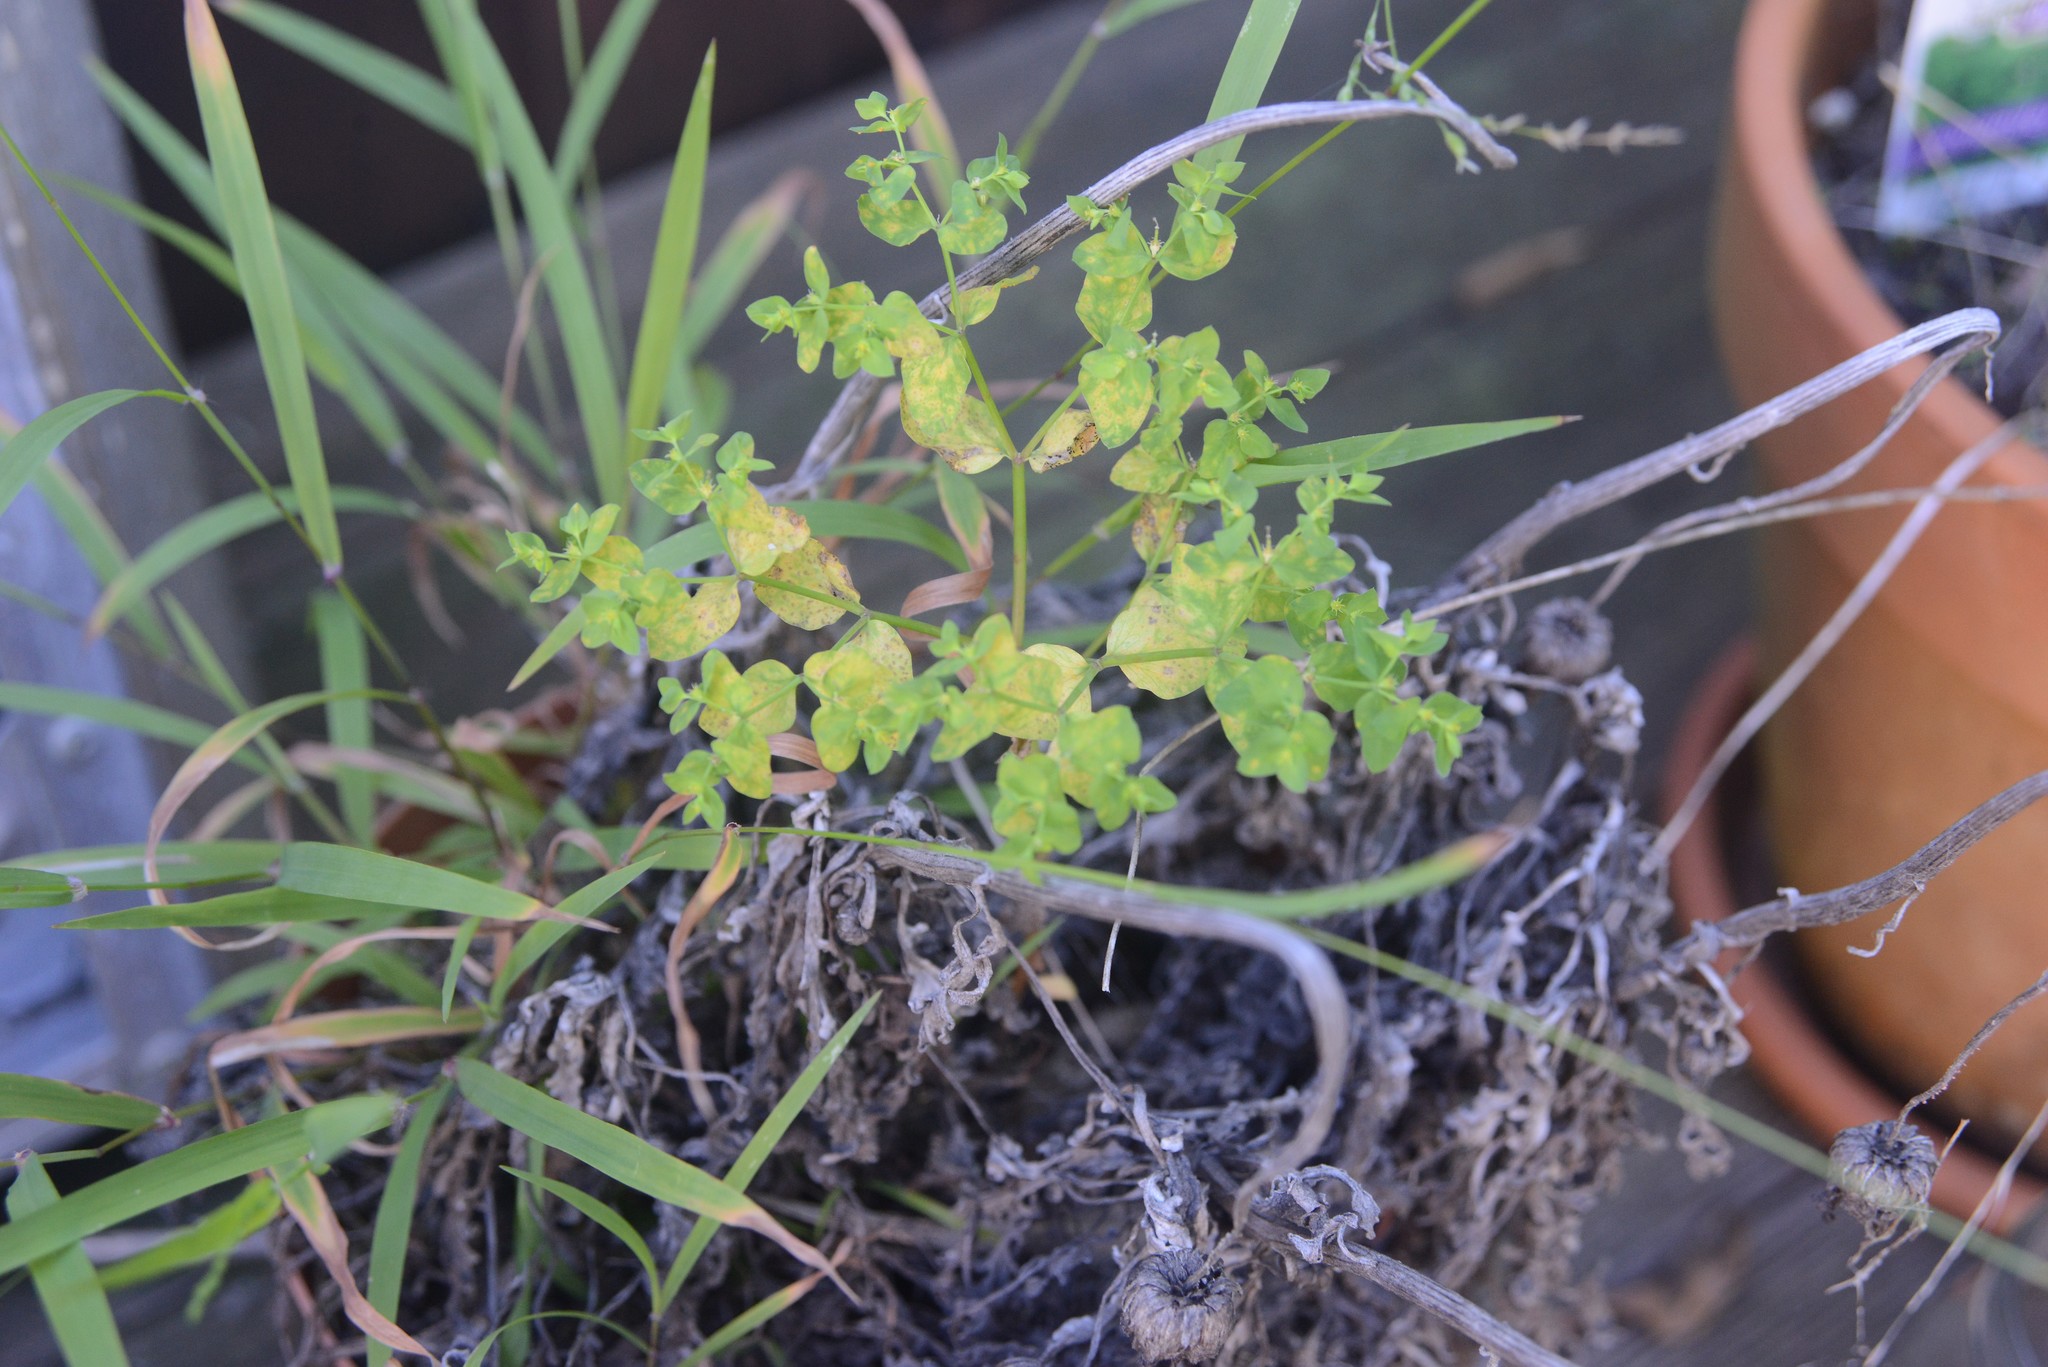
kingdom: Plantae
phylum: Tracheophyta
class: Magnoliopsida
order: Malpighiales
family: Euphorbiaceae
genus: Euphorbia
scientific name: Euphorbia peplus
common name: Petty spurge
